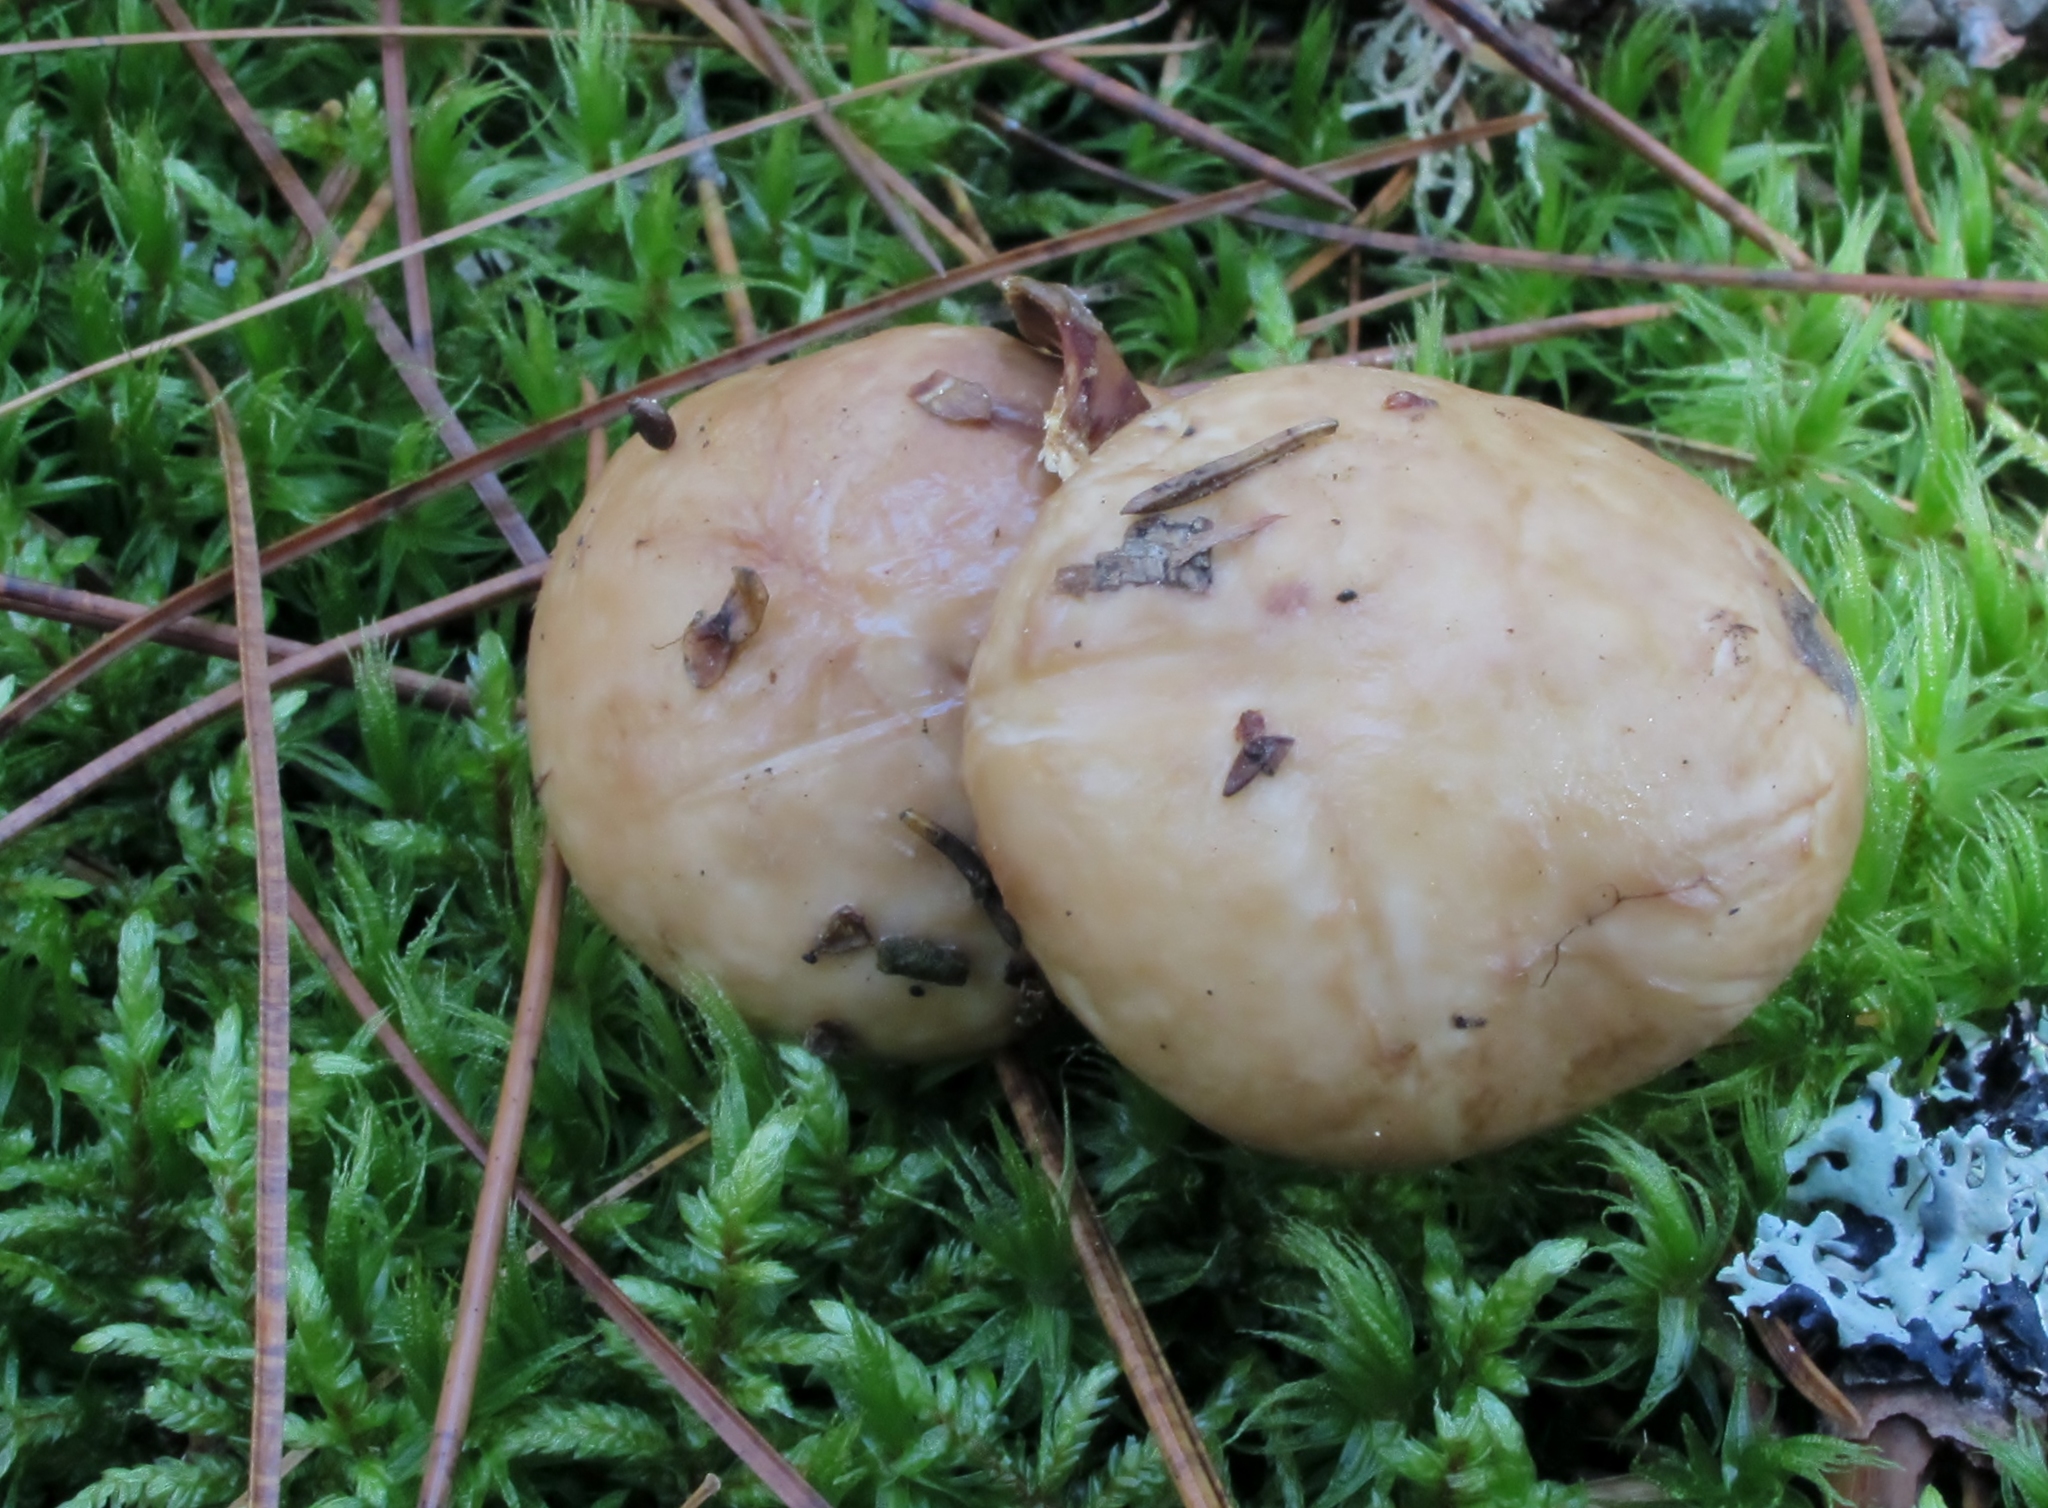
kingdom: Fungi
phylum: Basidiomycota
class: Agaricomycetes
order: Boletales
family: Suillaceae
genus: Suillus
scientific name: Suillus glandulosipes
